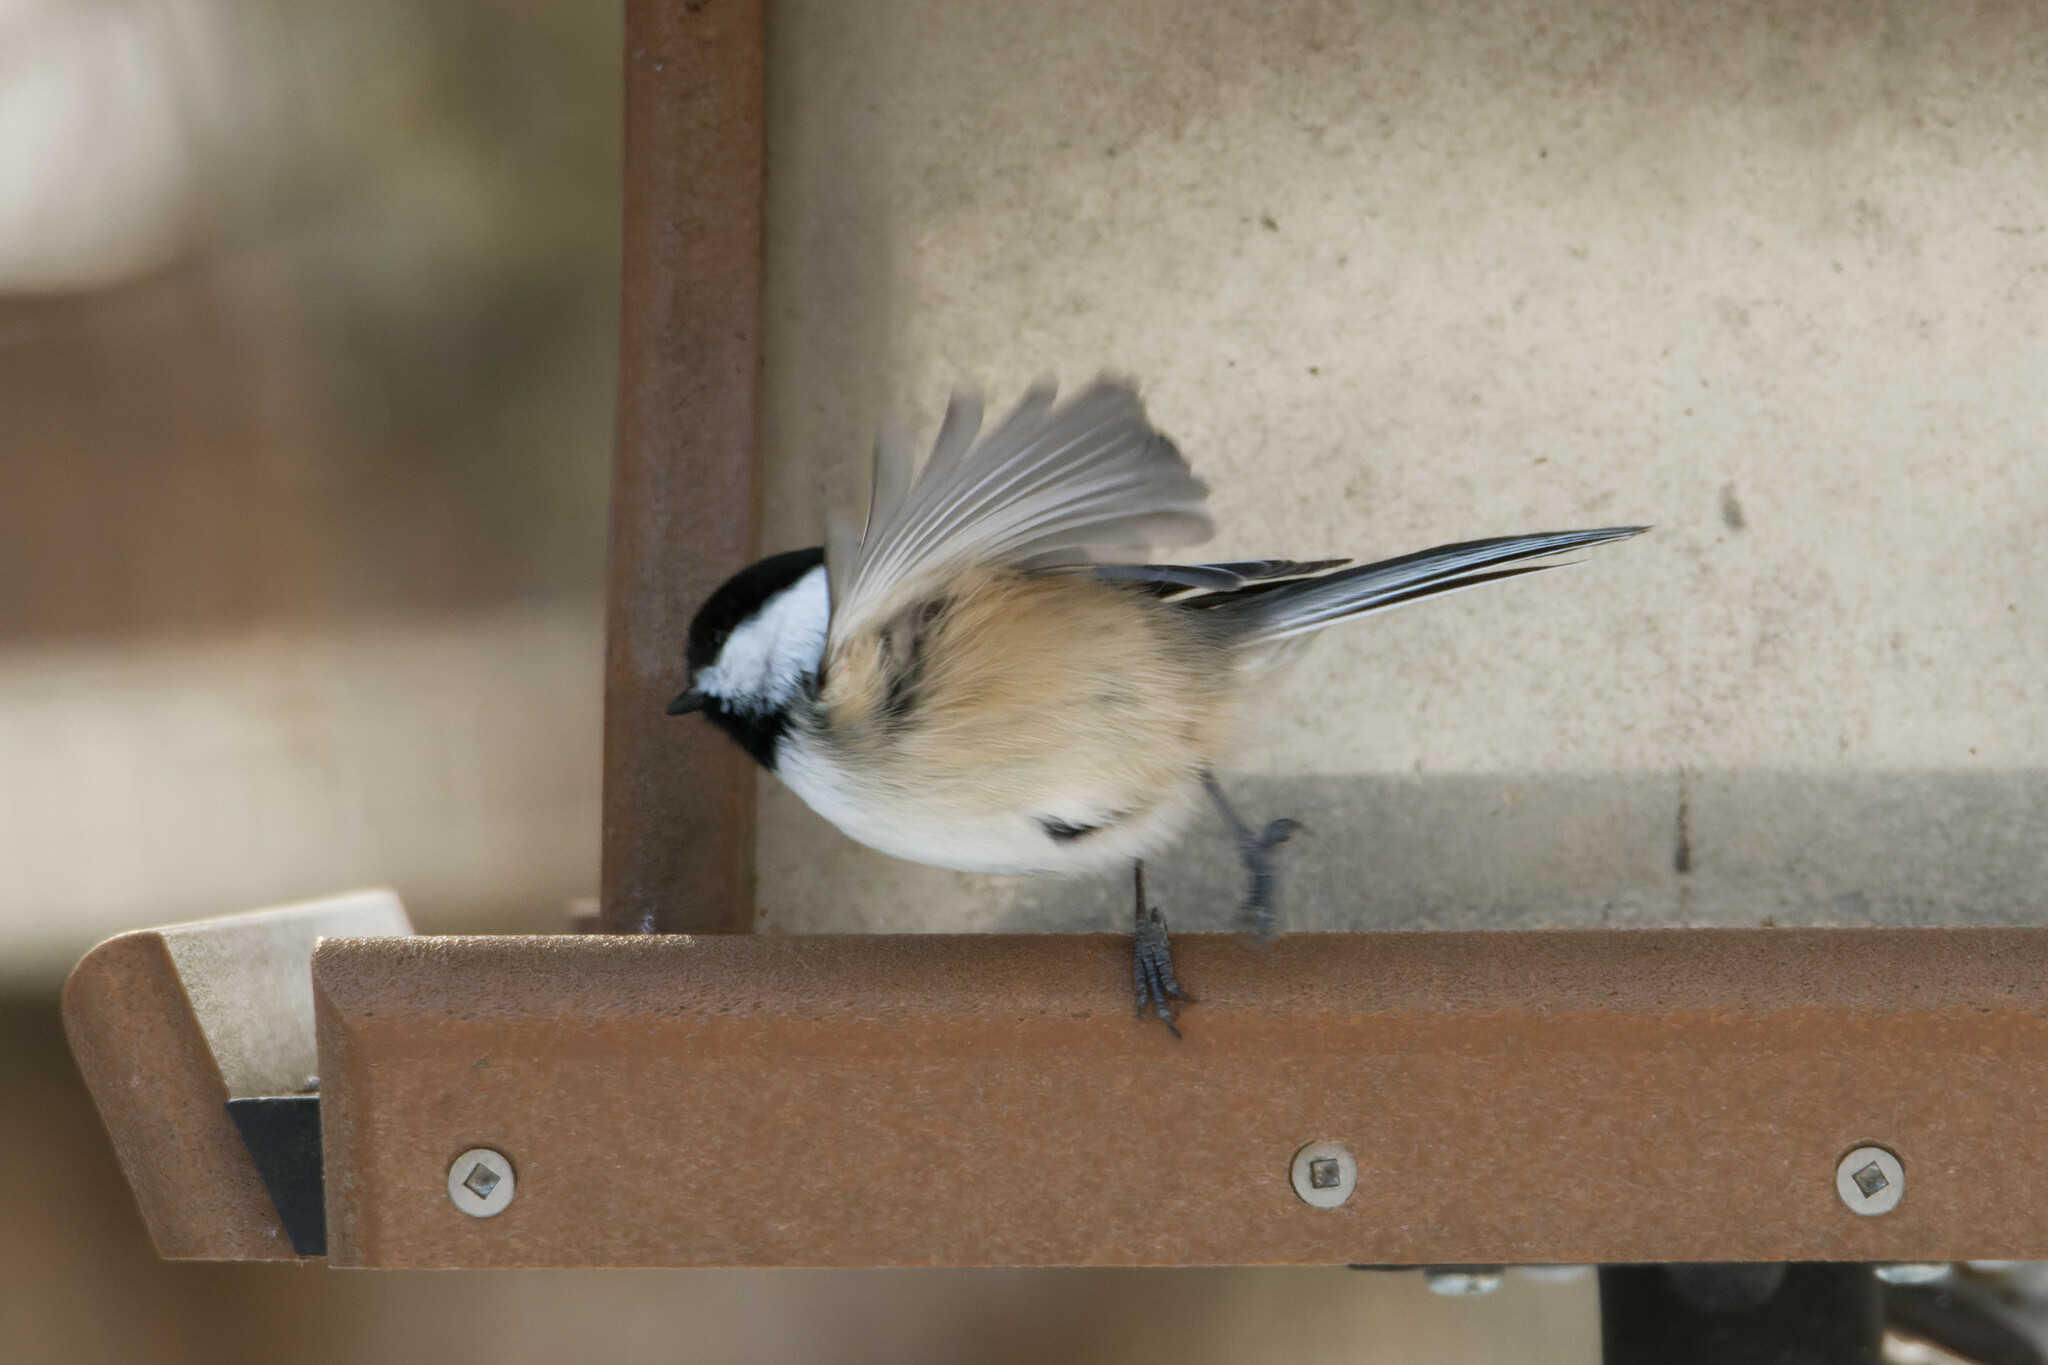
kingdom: Animalia
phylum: Chordata
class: Aves
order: Passeriformes
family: Paridae
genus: Poecile
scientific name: Poecile atricapillus
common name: Black-capped chickadee
